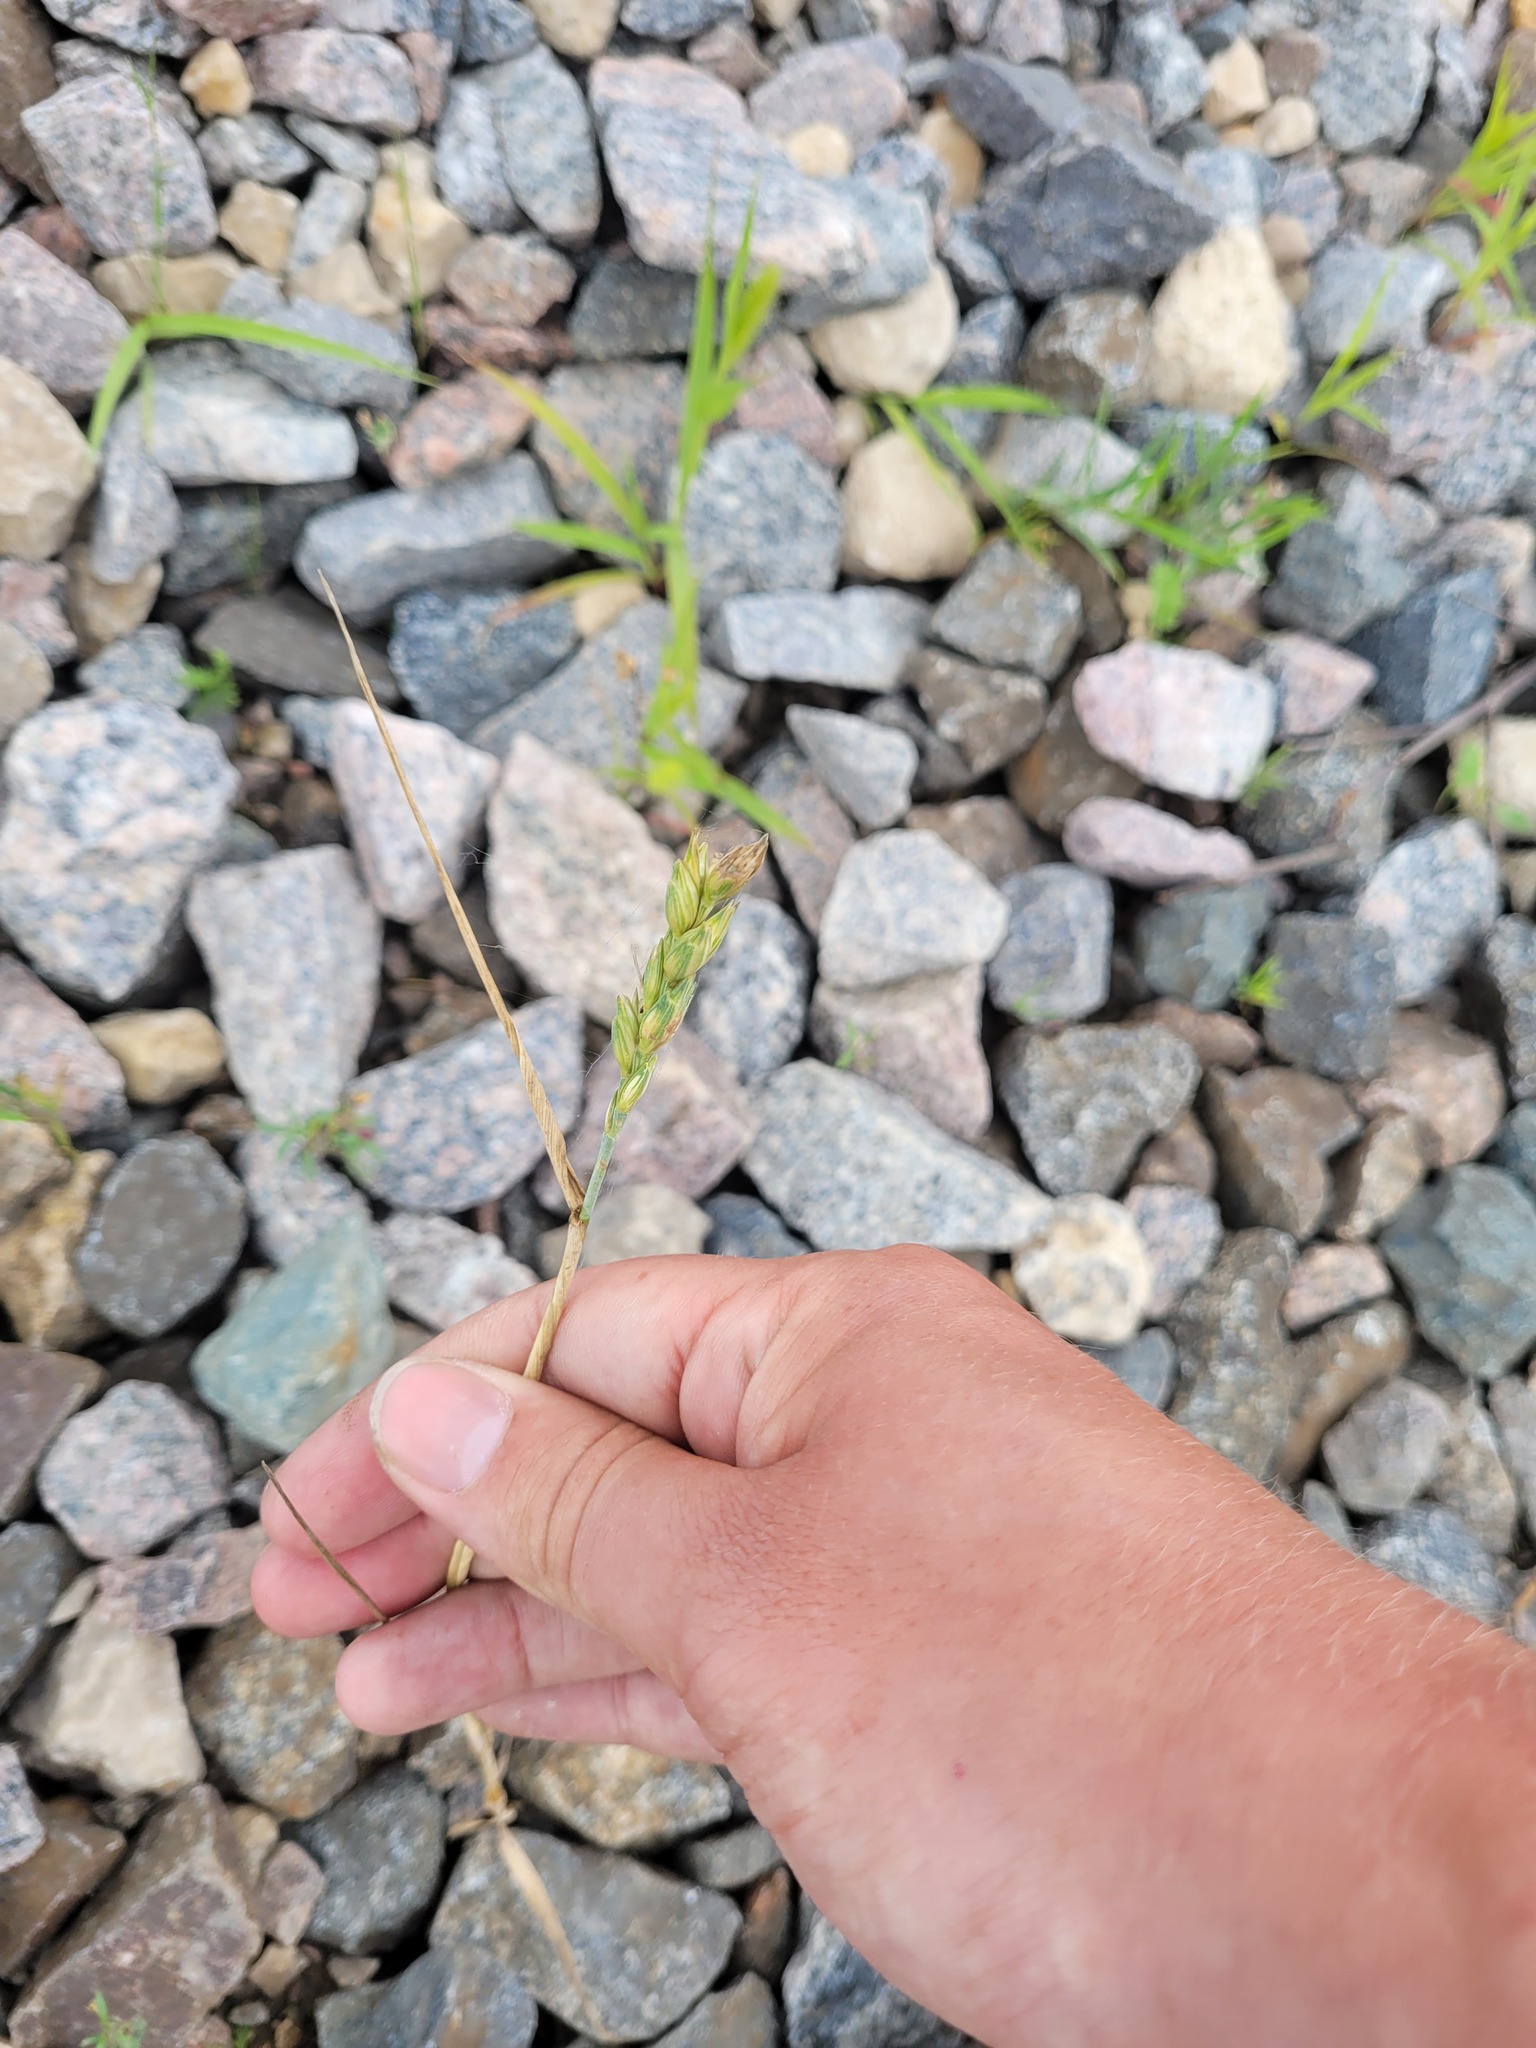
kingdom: Plantae
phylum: Tracheophyta
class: Liliopsida
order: Poales
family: Poaceae
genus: Triticum
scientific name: Triticum aestivum
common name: Common wheat
